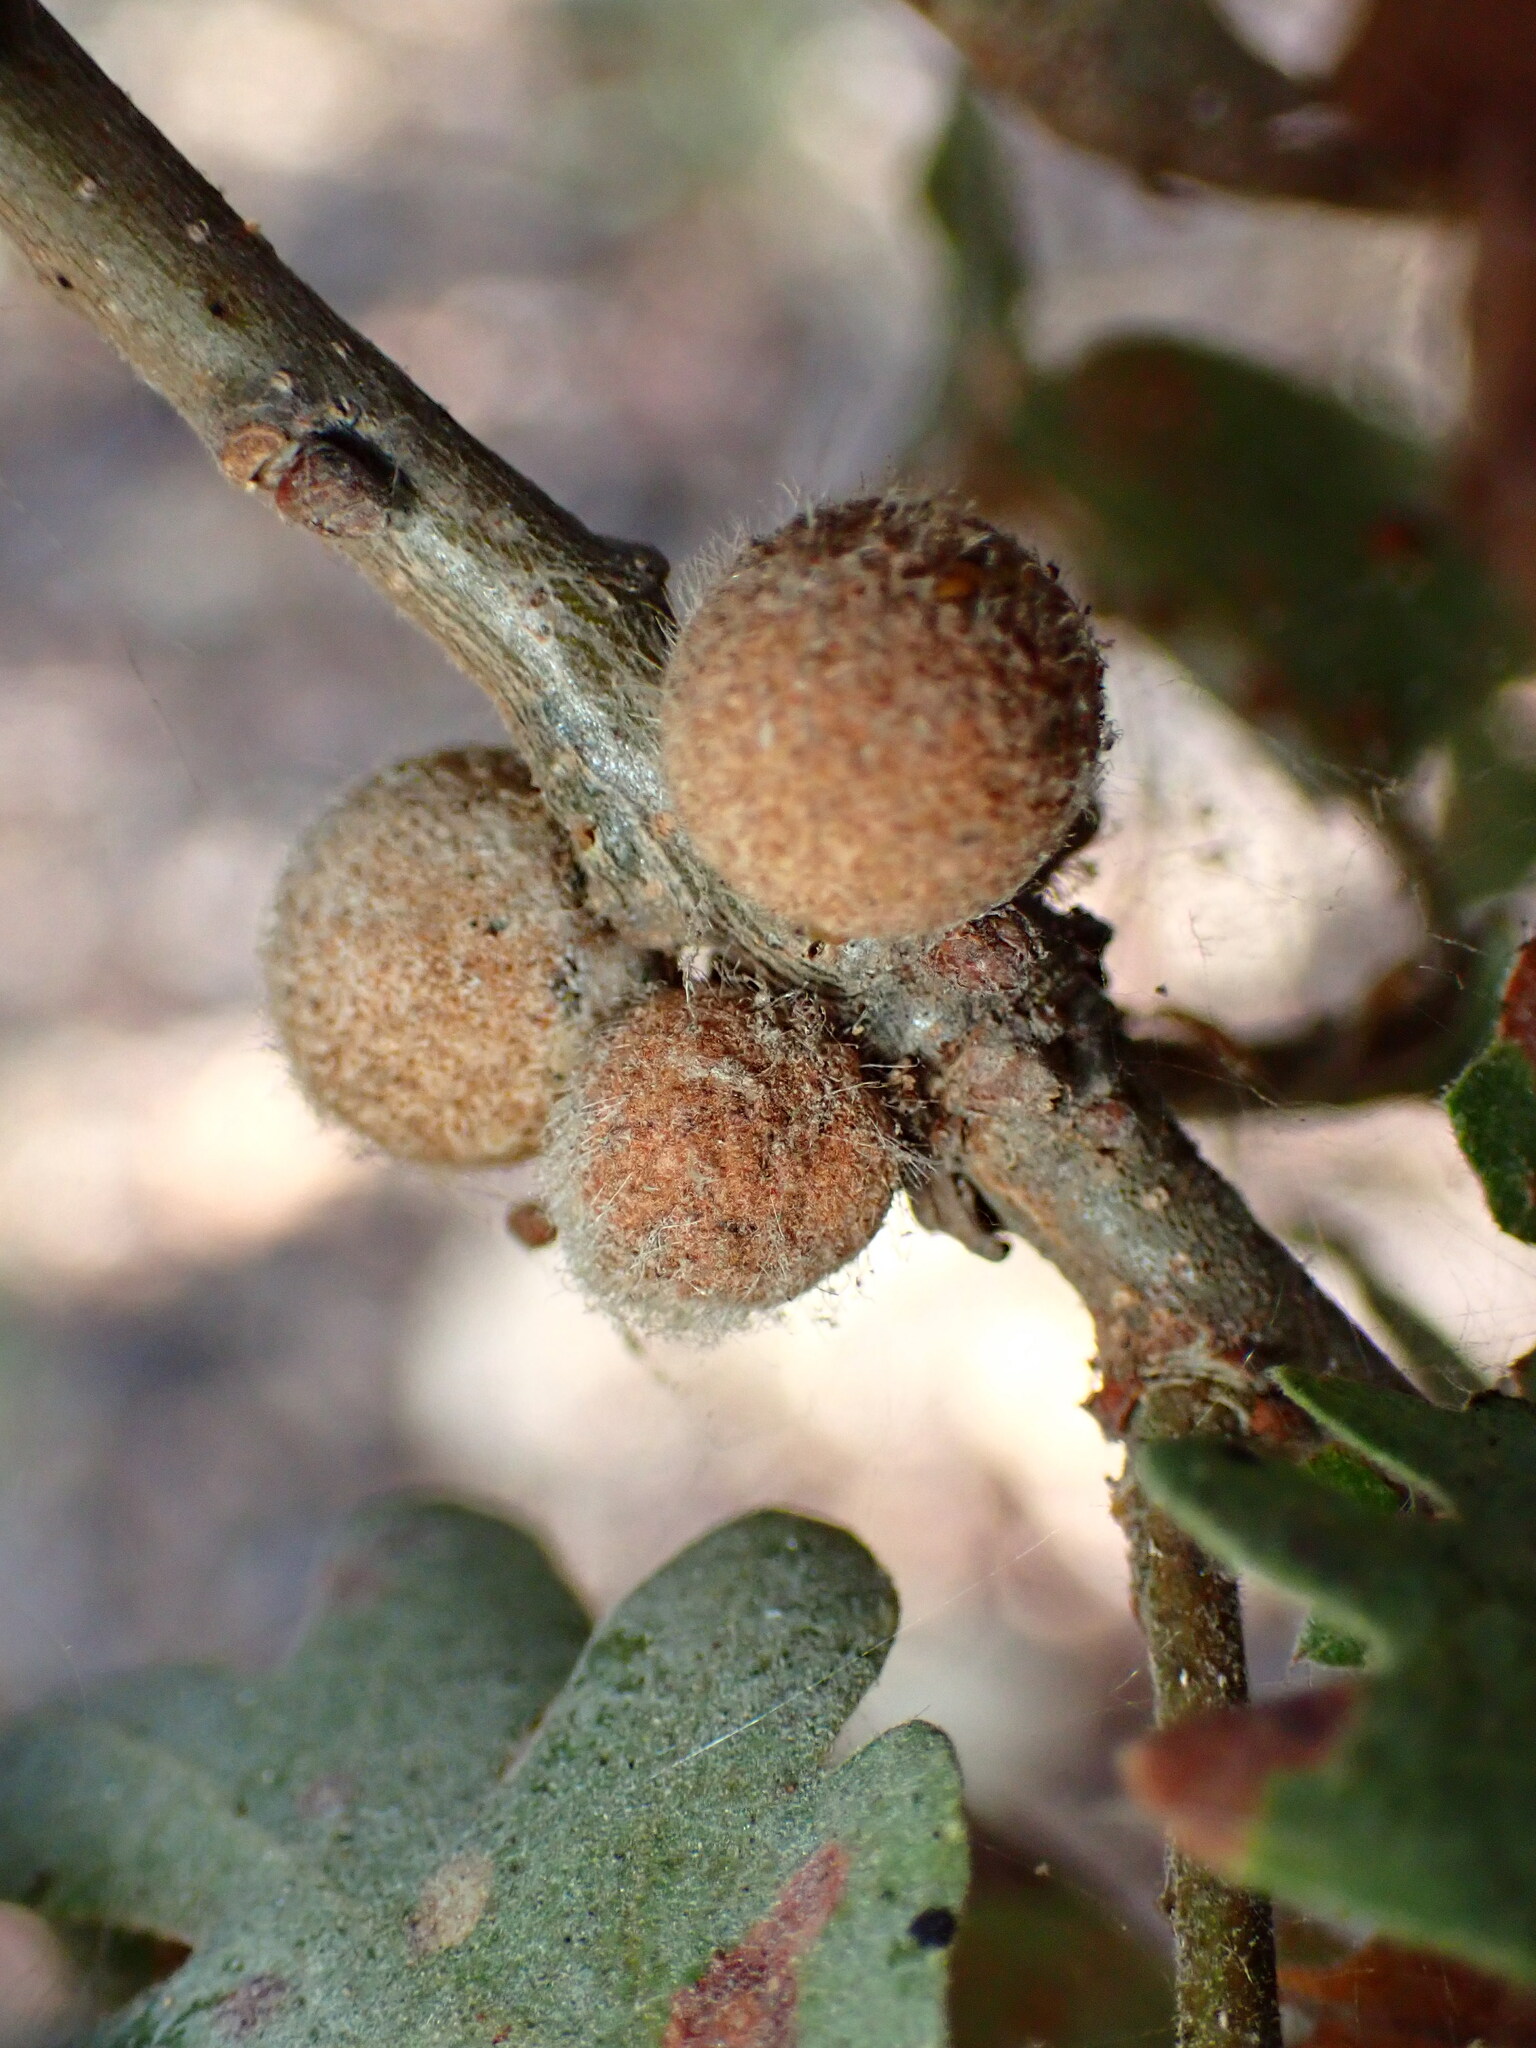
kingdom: Animalia
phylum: Arthropoda
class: Insecta
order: Hymenoptera
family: Cynipidae
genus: Burnettweldia
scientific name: Burnettweldia
